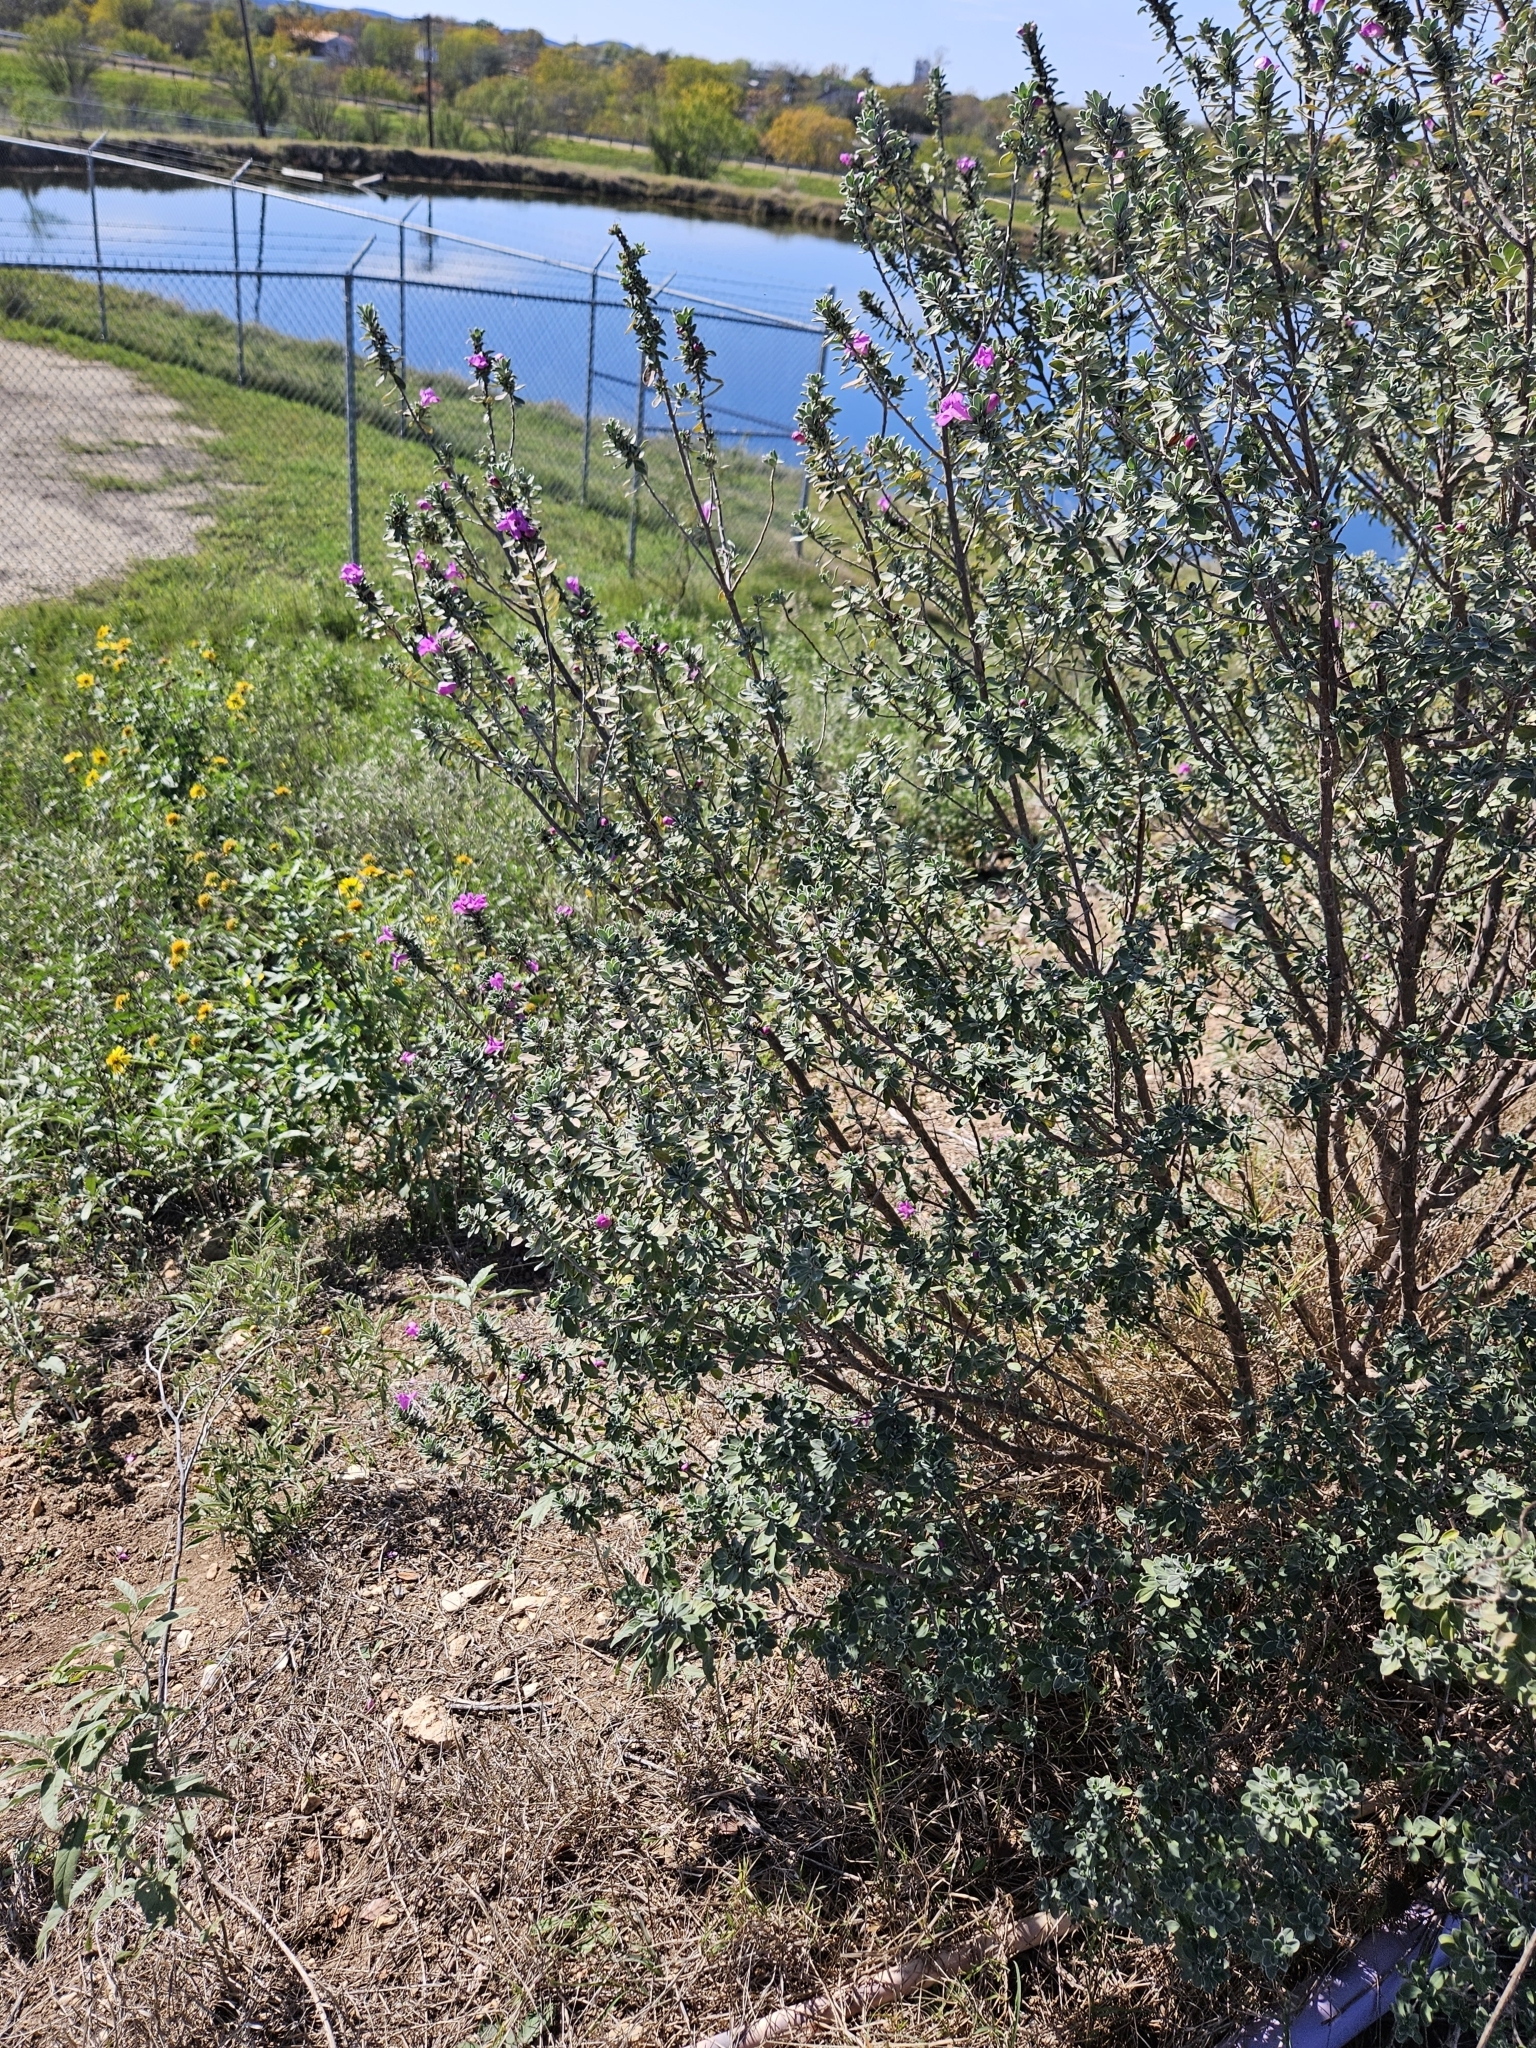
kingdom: Plantae
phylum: Tracheophyta
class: Magnoliopsida
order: Lamiales
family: Scrophulariaceae
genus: Leucophyllum
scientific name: Leucophyllum frutescens
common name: Texas silverleaf
